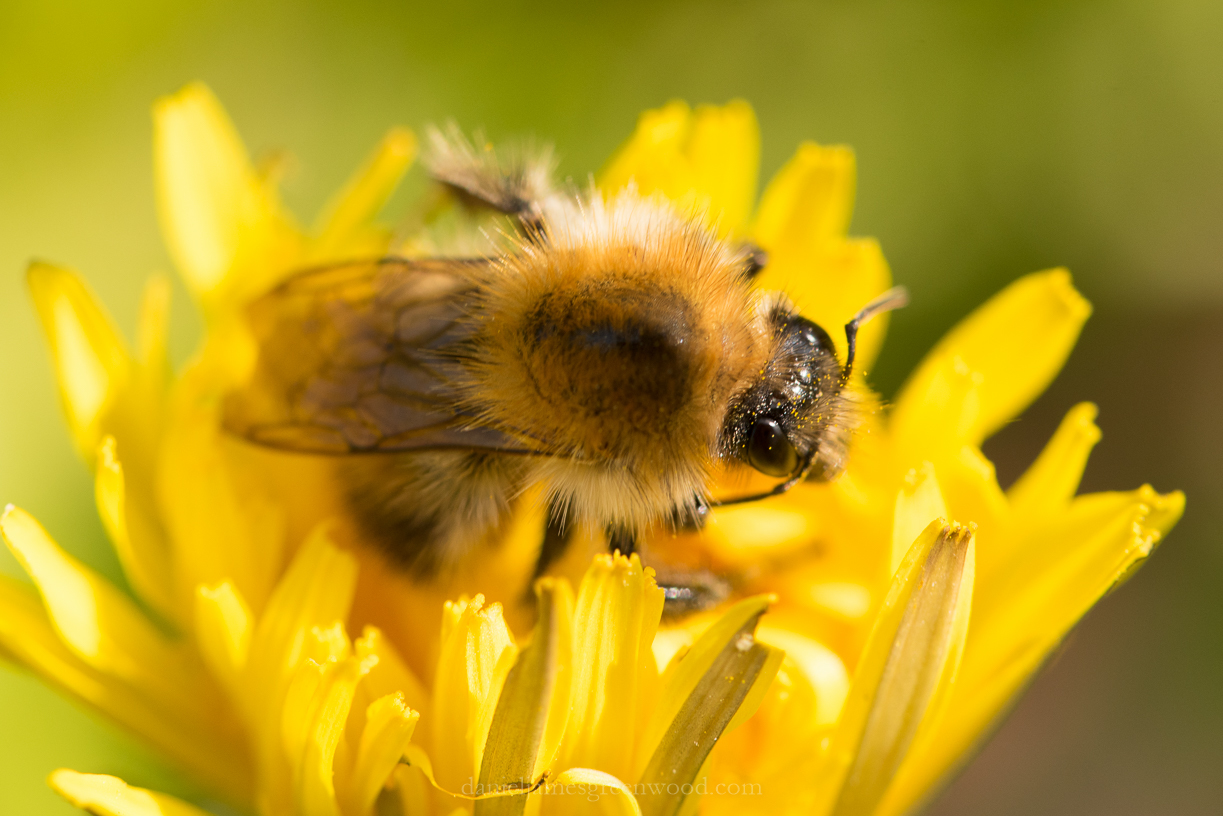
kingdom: Animalia
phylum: Arthropoda
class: Insecta
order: Hymenoptera
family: Apidae
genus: Bombus
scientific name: Bombus pascuorum
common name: Common carder bee
